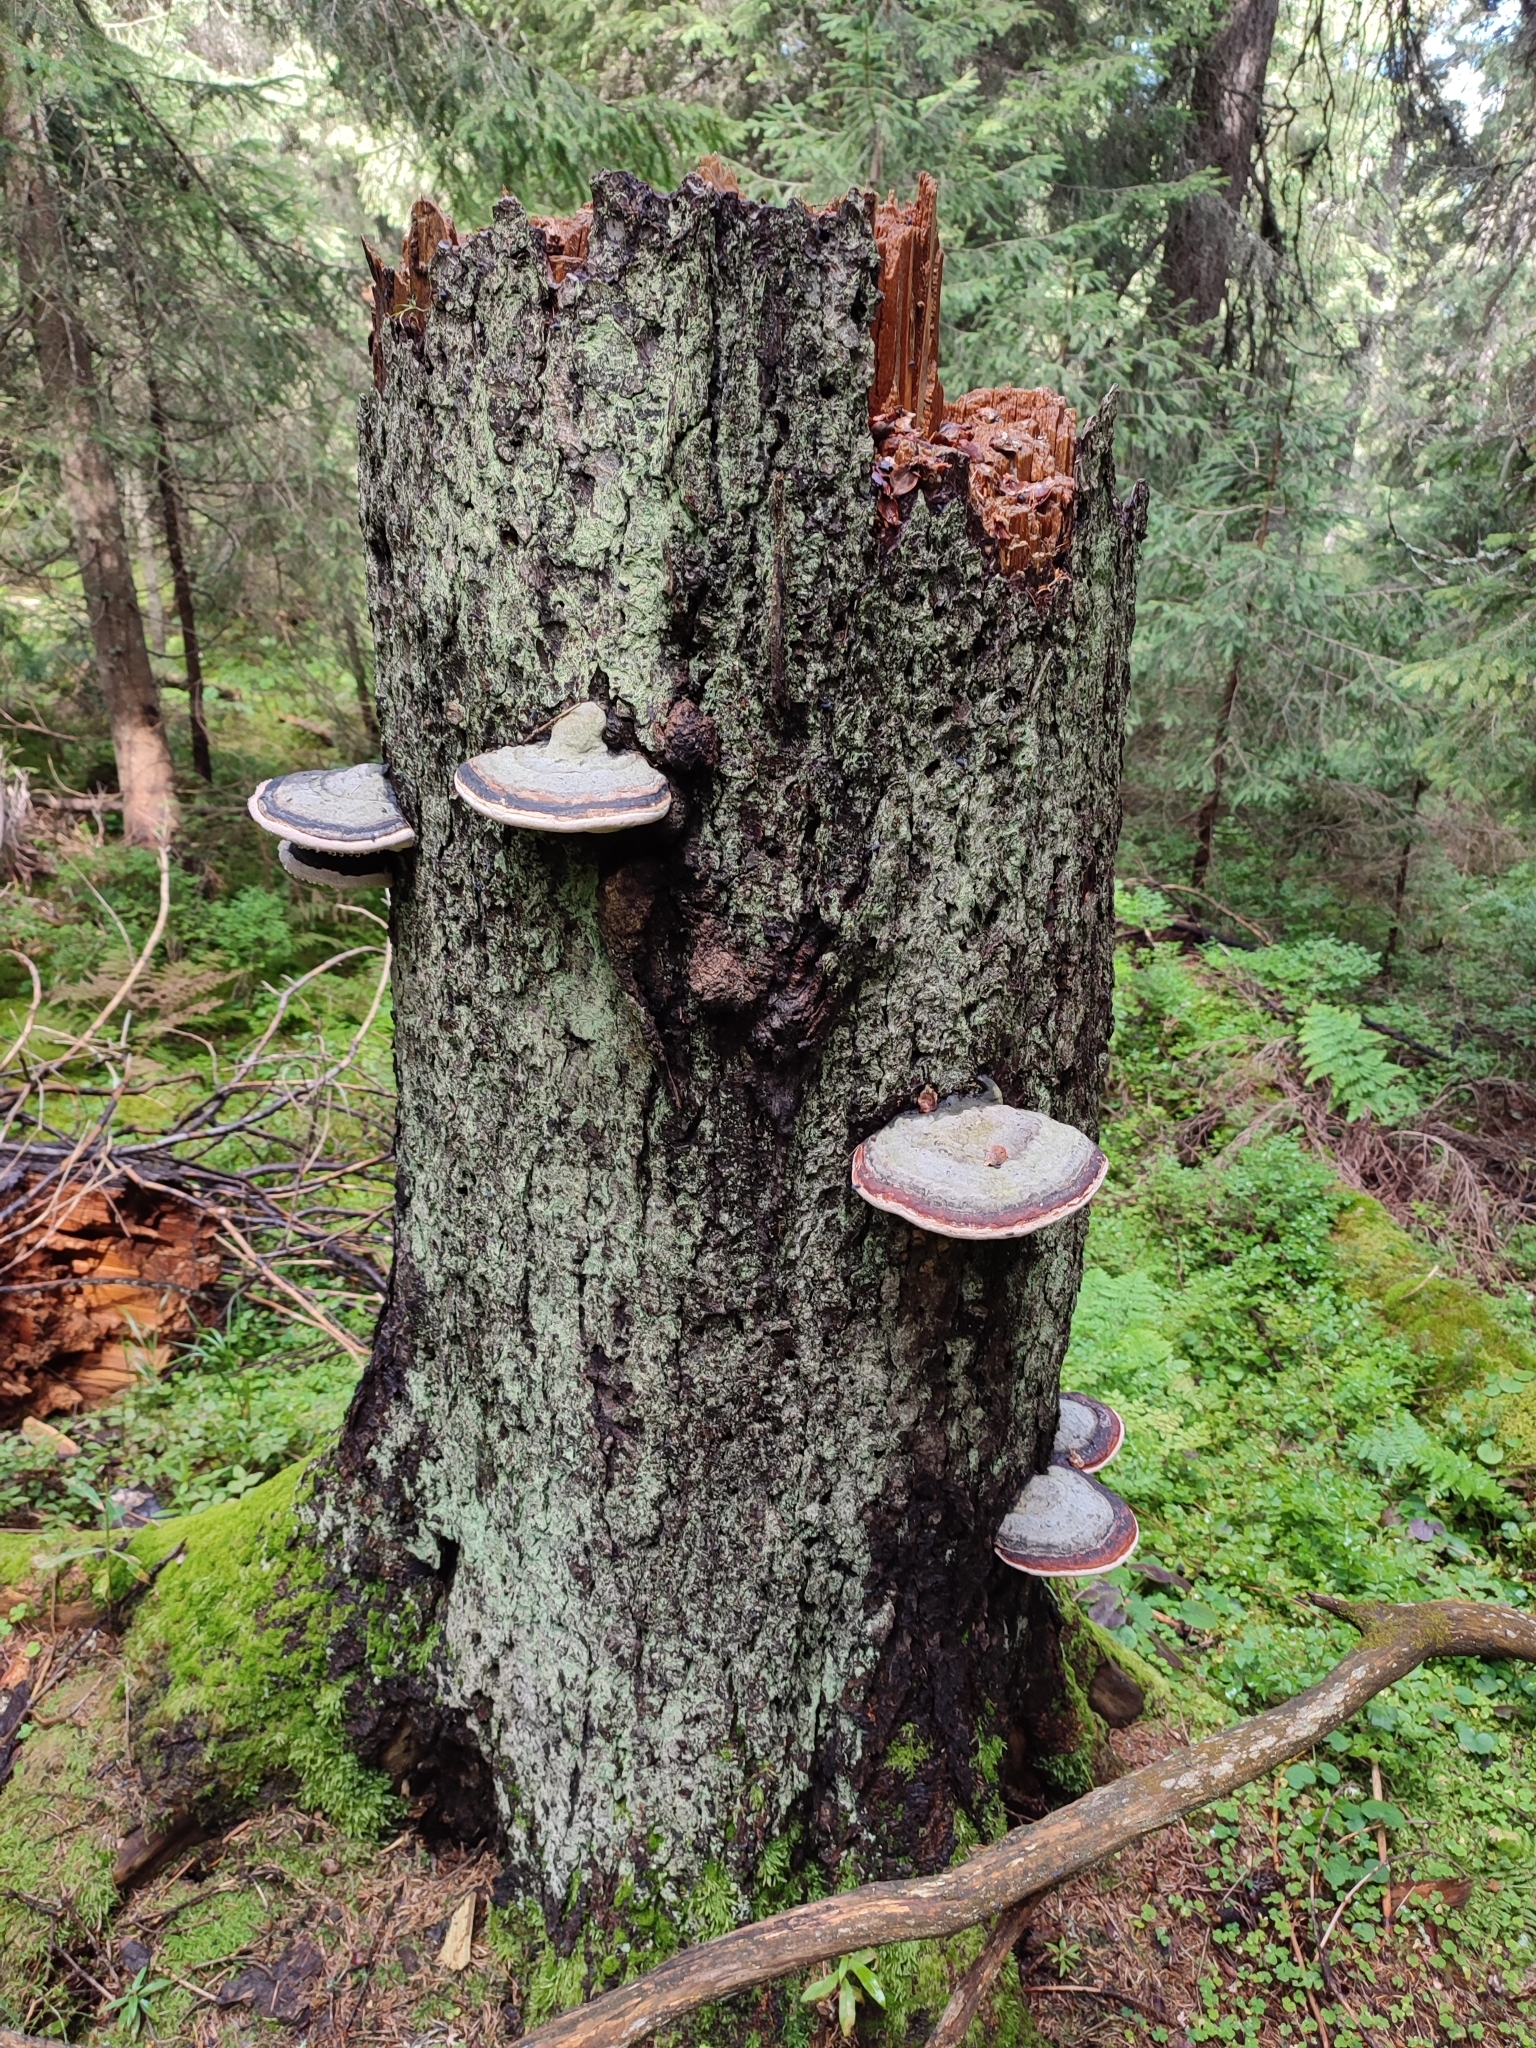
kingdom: Fungi
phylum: Basidiomycota
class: Agaricomycetes
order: Polyporales
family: Fomitopsidaceae
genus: Fomitopsis
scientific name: Fomitopsis pinicola
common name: Red-belted bracket
